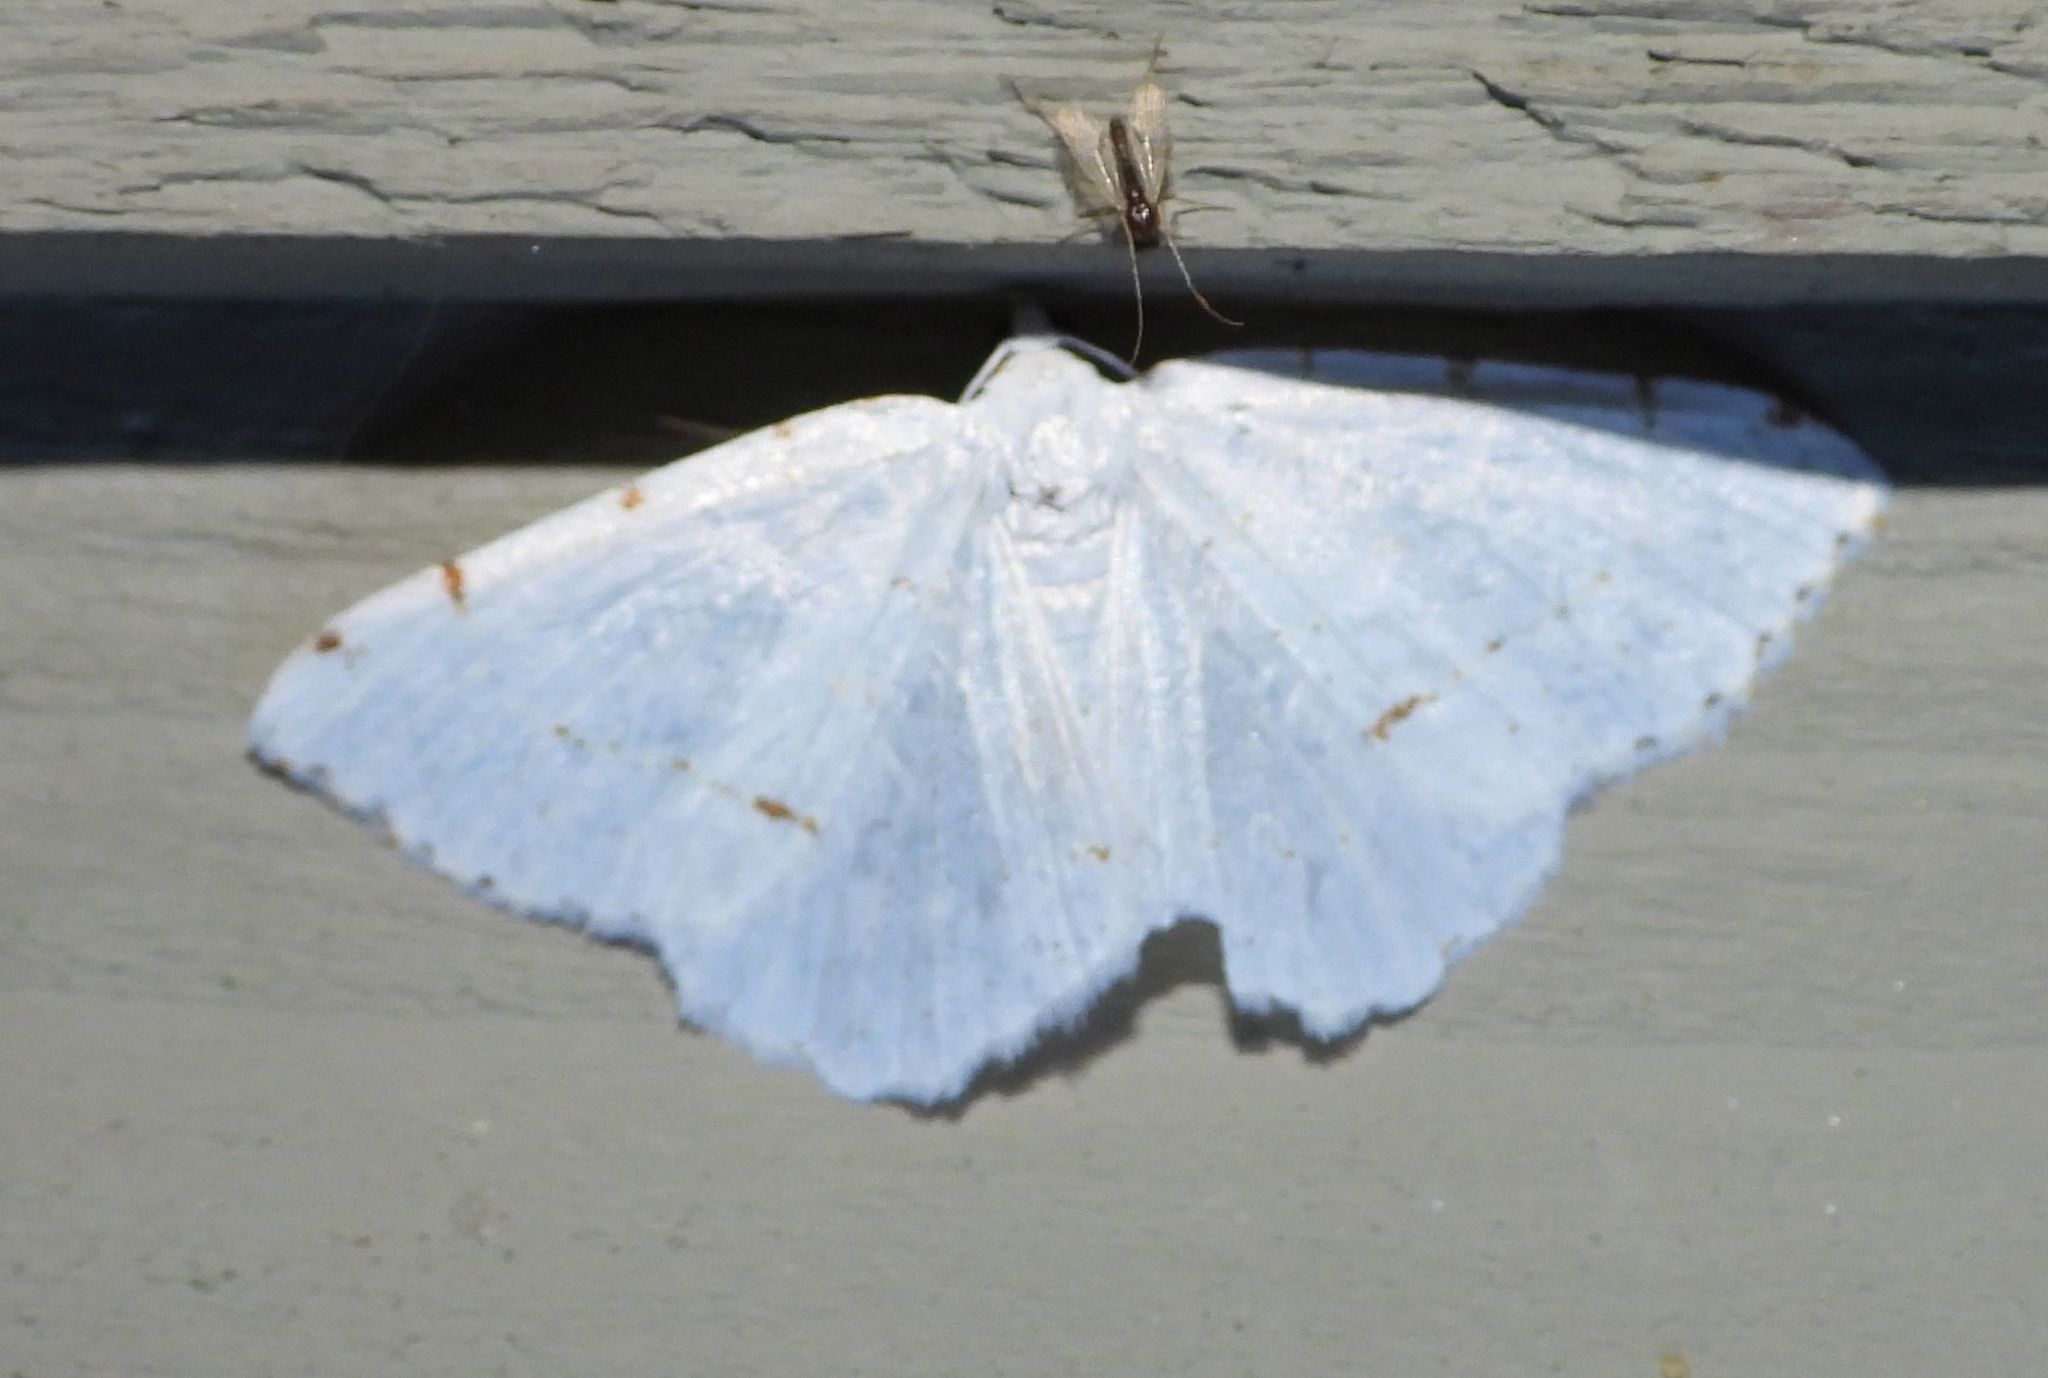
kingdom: Animalia
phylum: Arthropoda
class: Insecta
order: Lepidoptera
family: Geometridae
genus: Macaria
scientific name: Macaria pustularia
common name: Lesser maple spanworm moth
